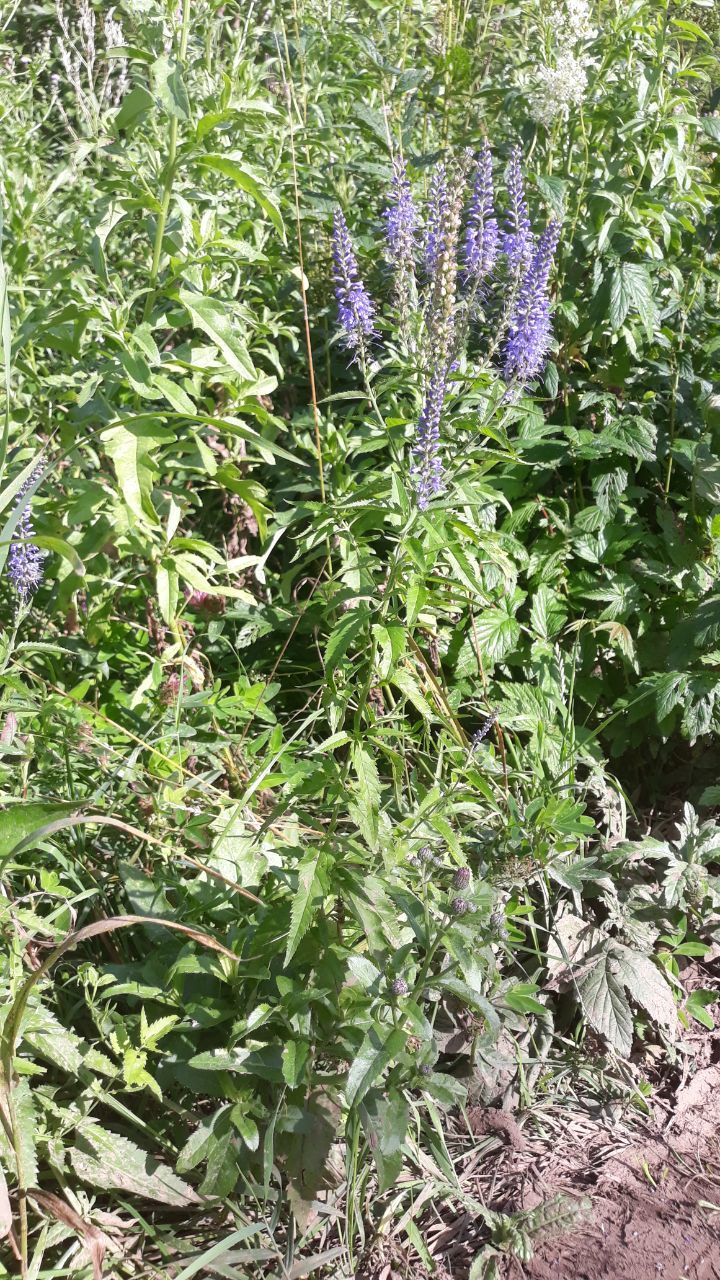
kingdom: Plantae
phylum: Tracheophyta
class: Magnoliopsida
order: Lamiales
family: Plantaginaceae
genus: Veronica
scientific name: Veronica longifolia
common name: Garden speedwell
